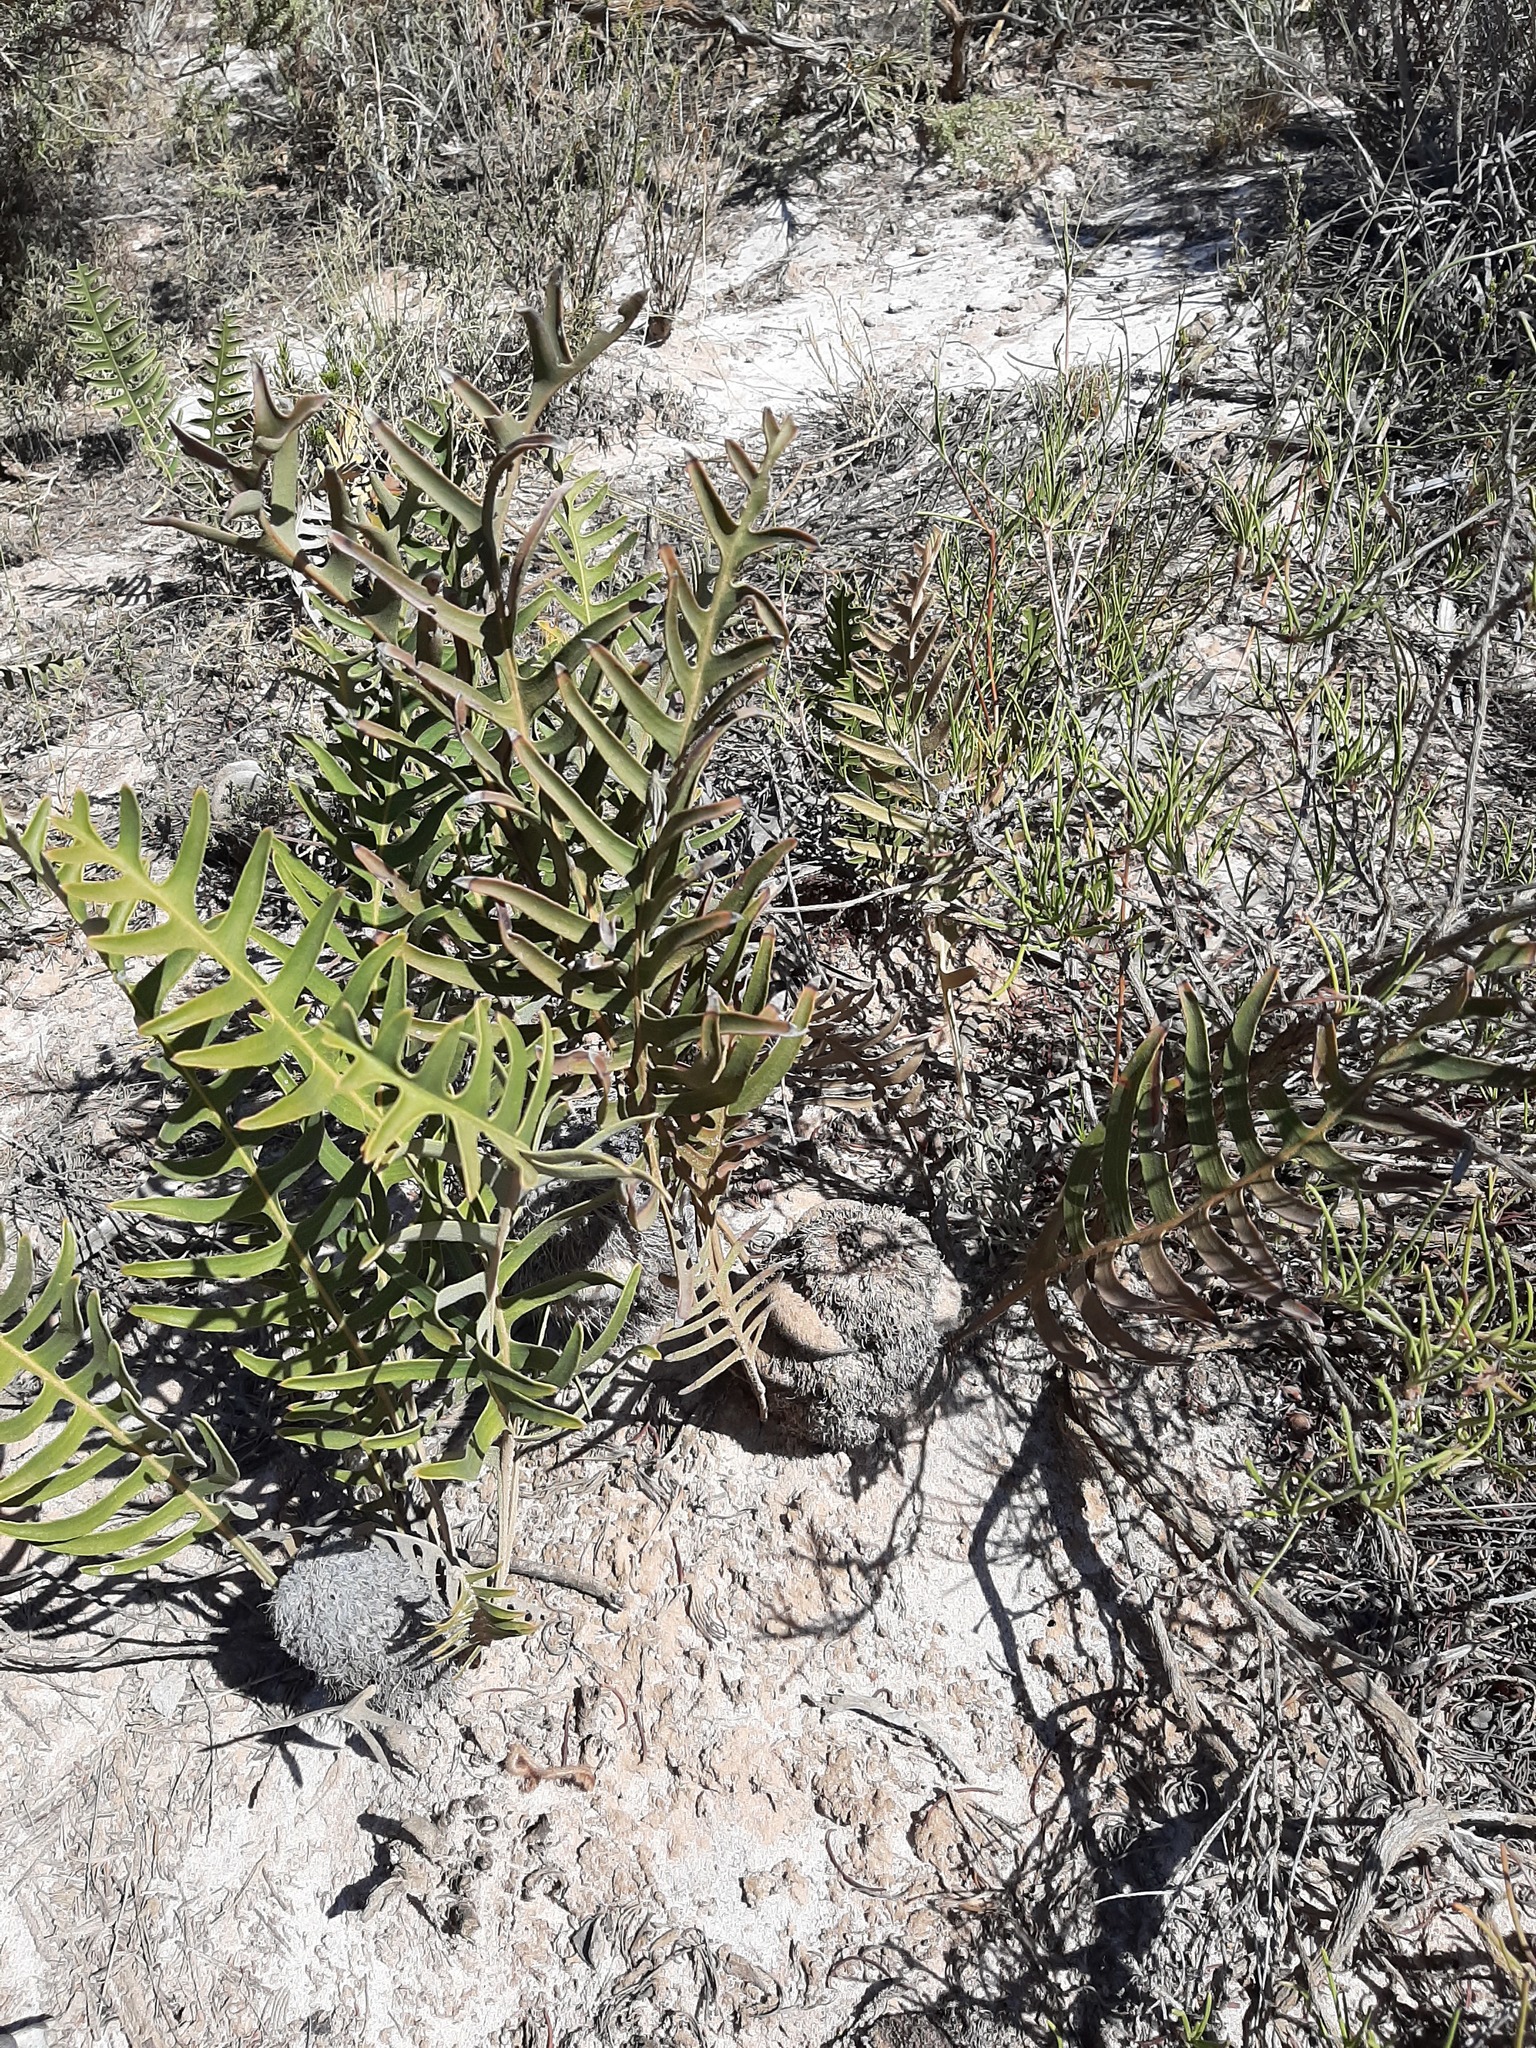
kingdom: Plantae
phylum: Tracheophyta
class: Magnoliopsida
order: Proteales
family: Proteaceae
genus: Banksia
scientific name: Banksia chamaephyton
